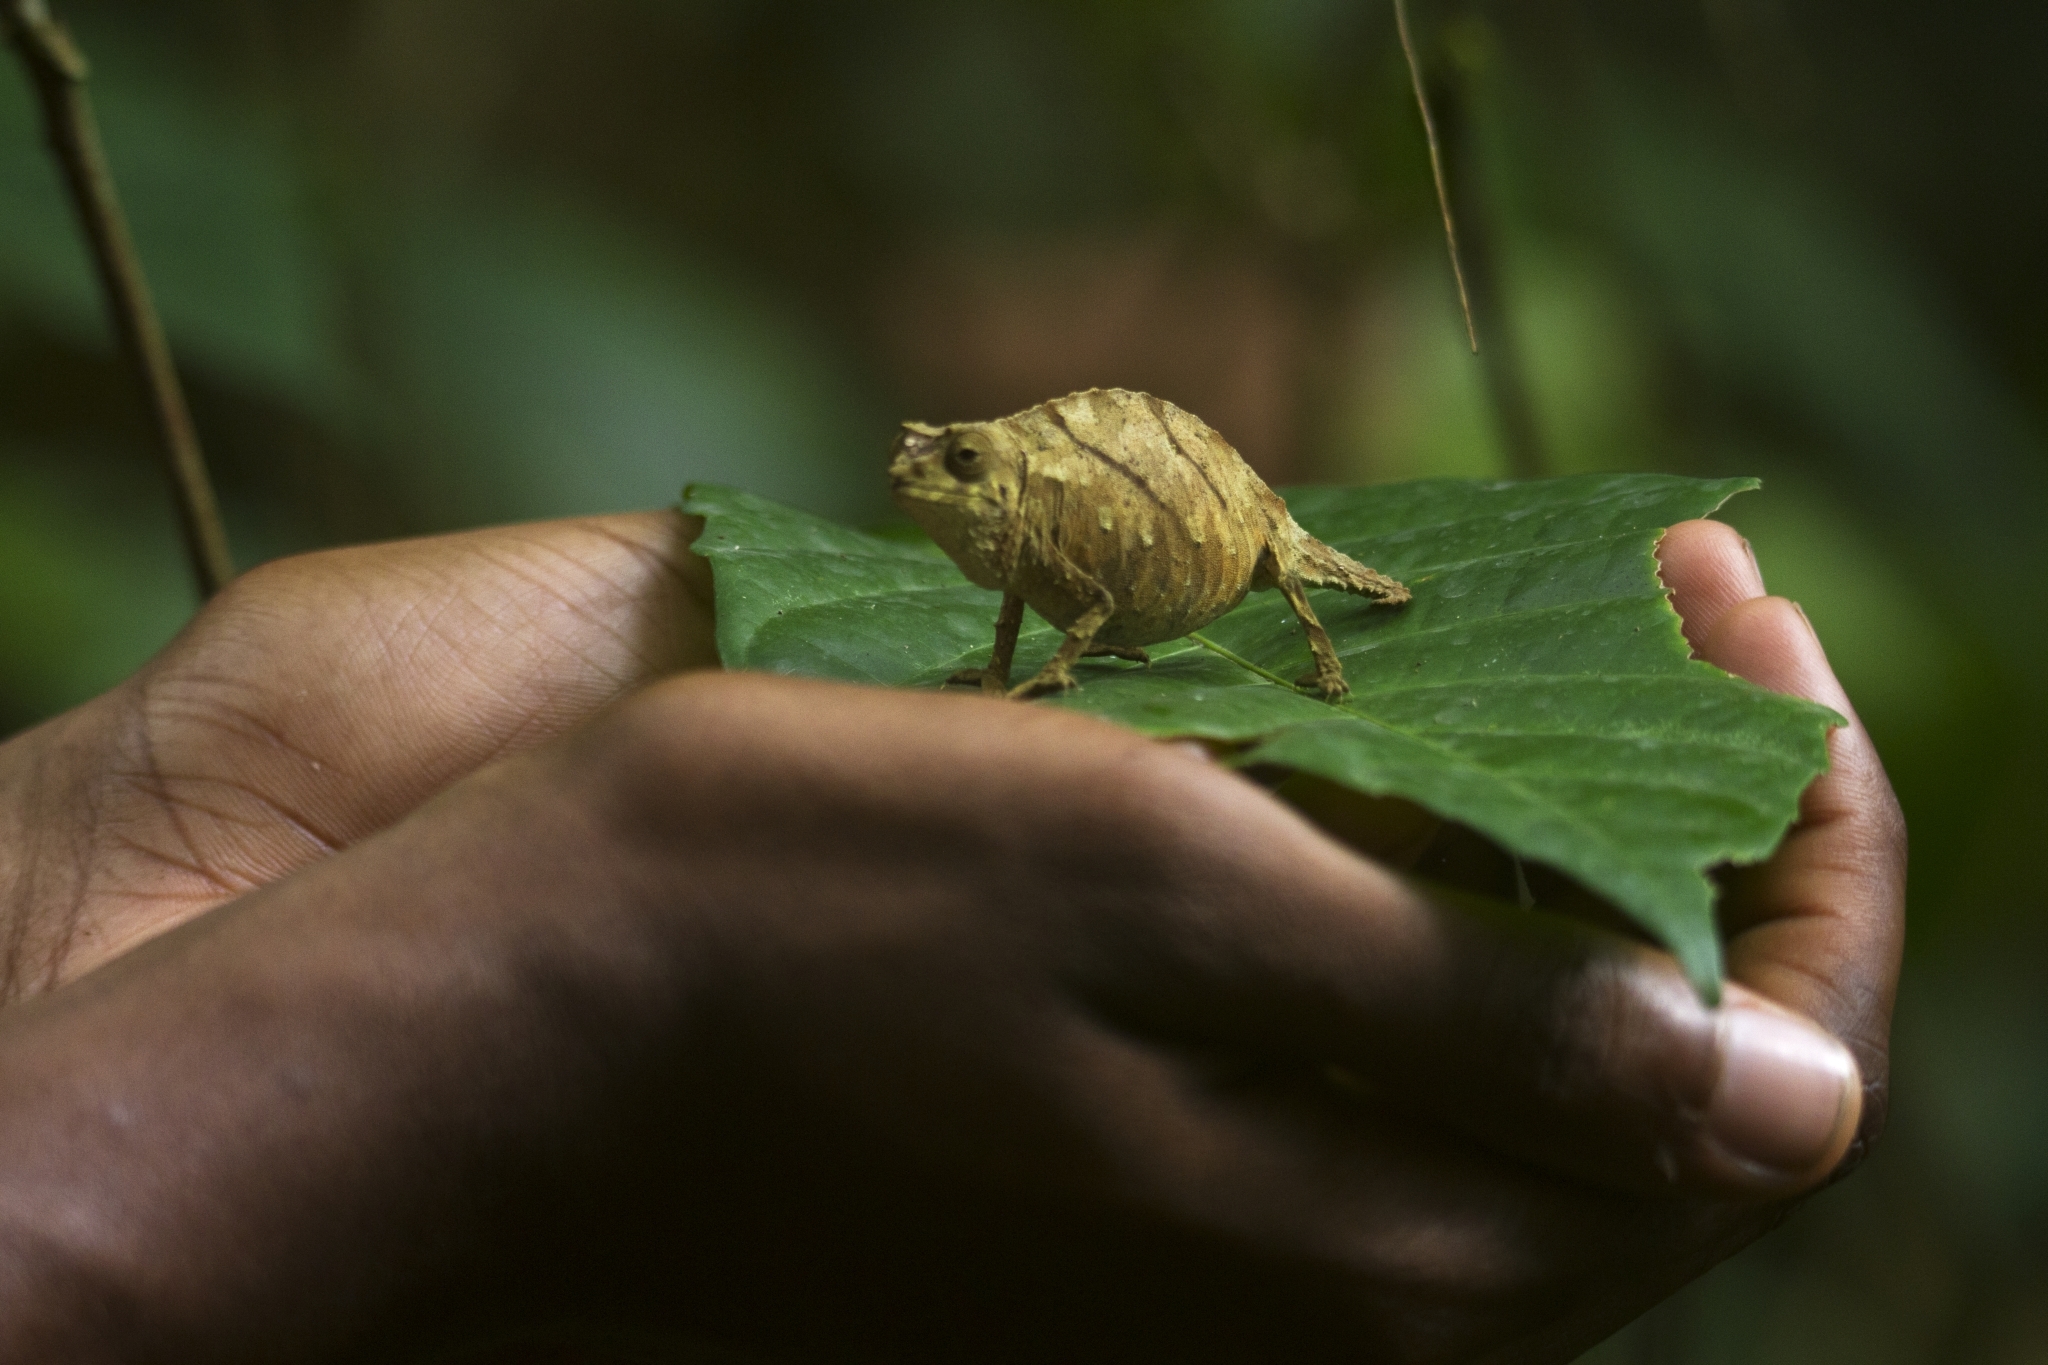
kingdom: Animalia
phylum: Chordata
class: Squamata
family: Chamaeleonidae
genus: Rhampholeon
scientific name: Rhampholeon spectrum
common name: Cameroon stumptail chameleon
